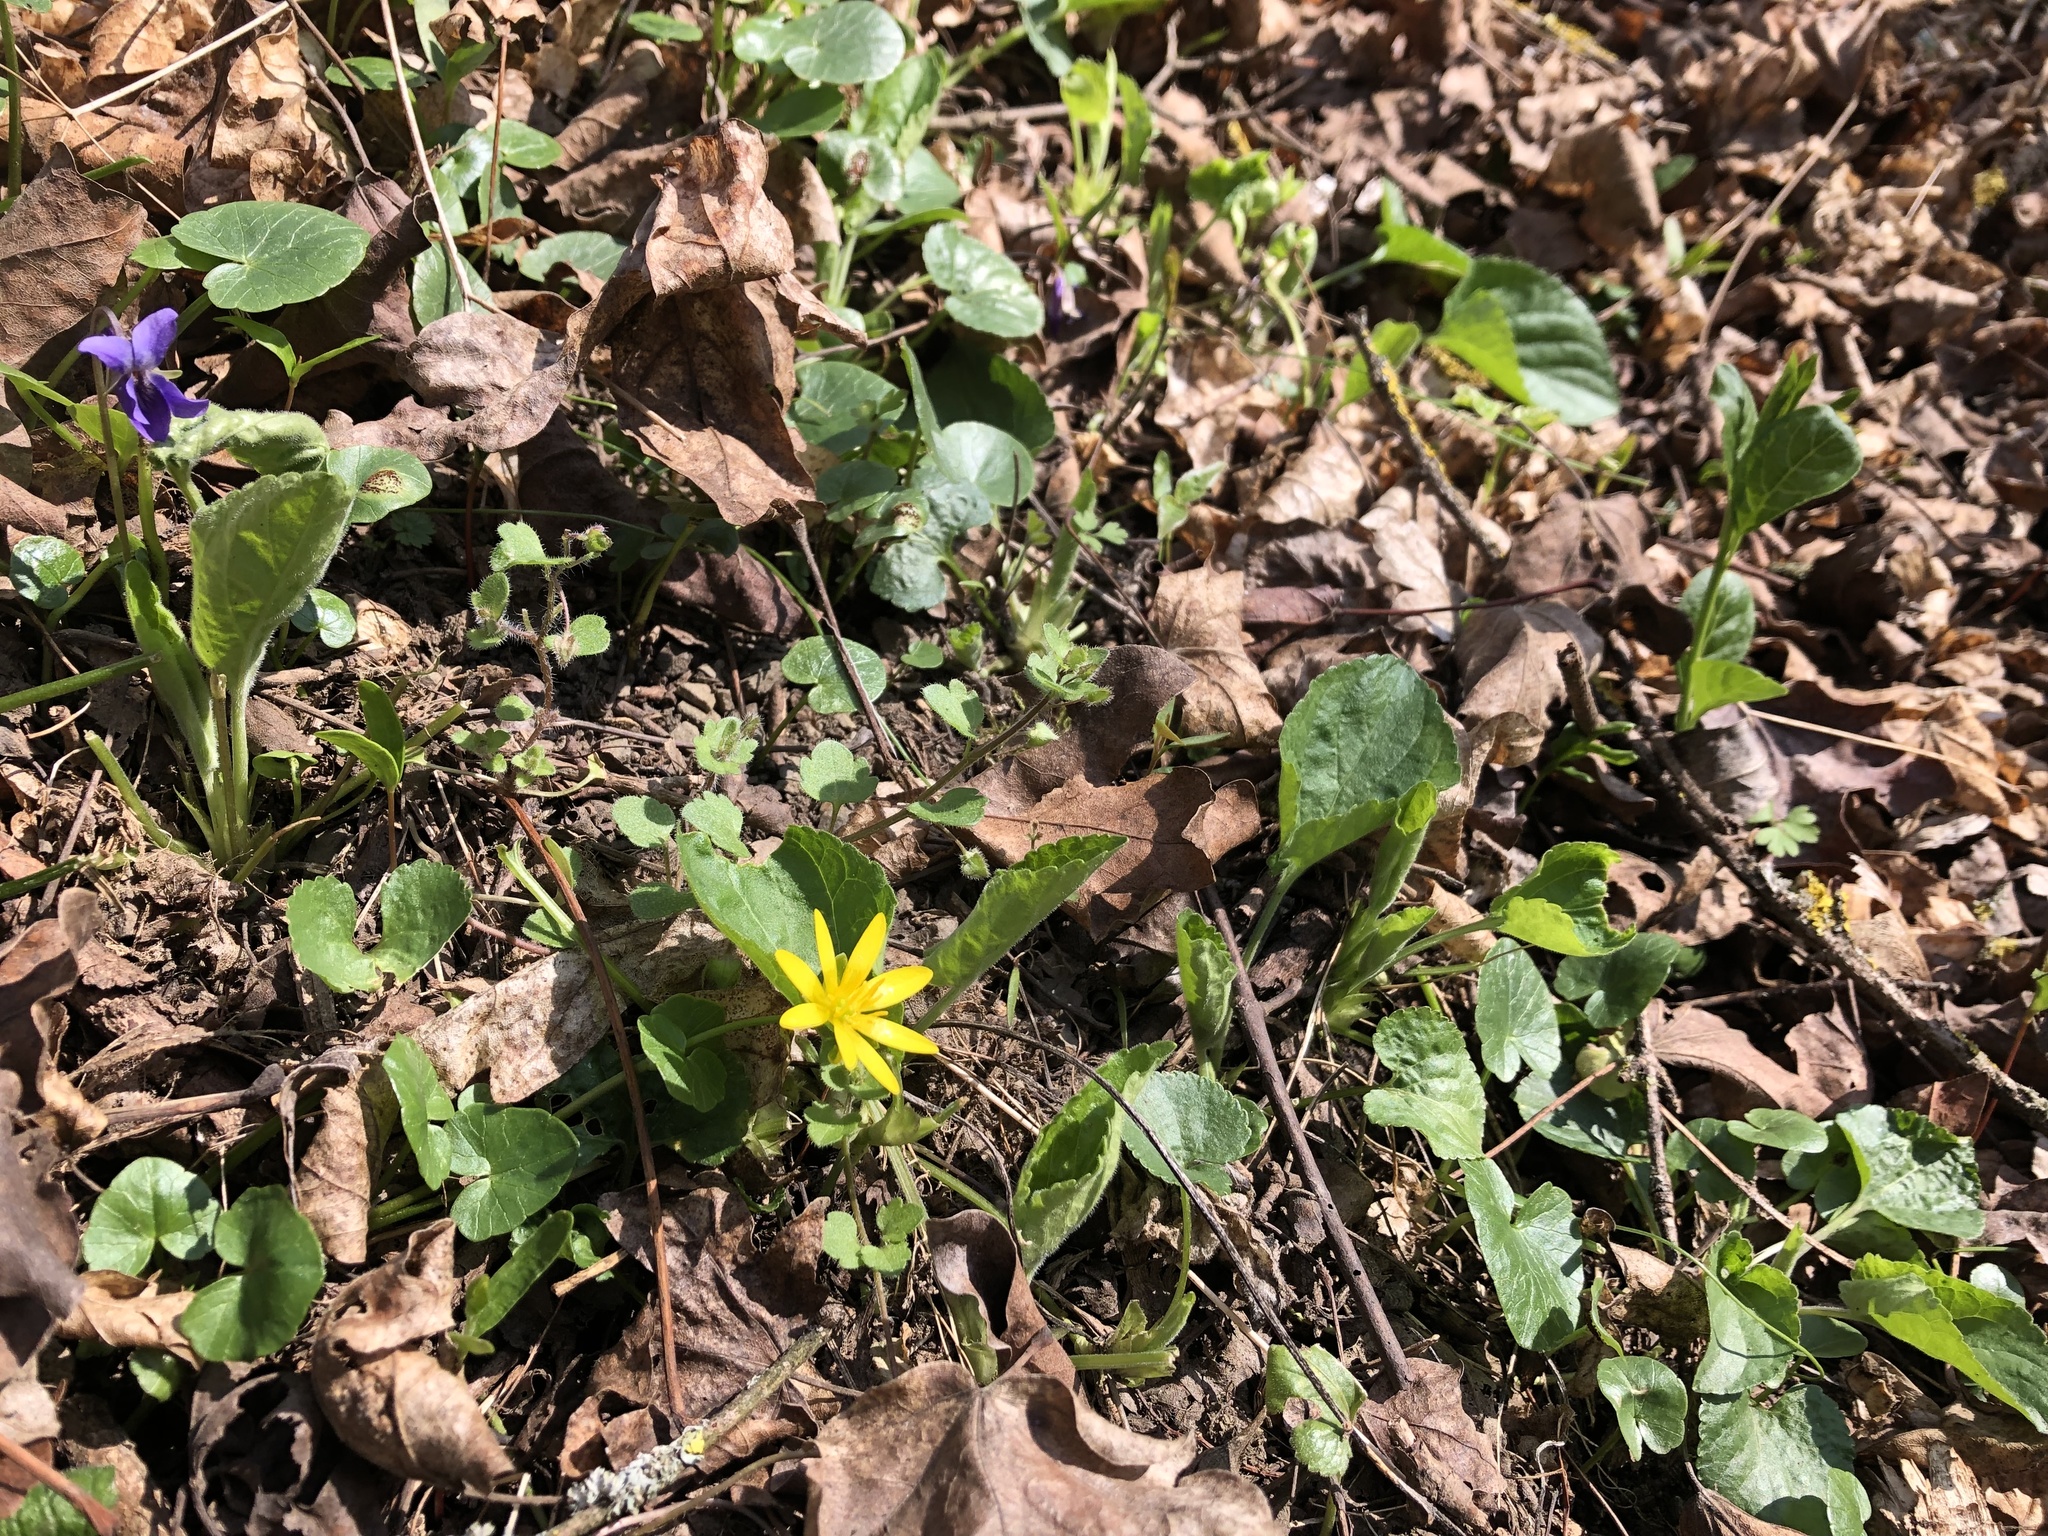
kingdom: Plantae
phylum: Tracheophyta
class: Magnoliopsida
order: Ranunculales
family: Ranunculaceae
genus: Ficaria
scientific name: Ficaria verna
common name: Lesser celandine
